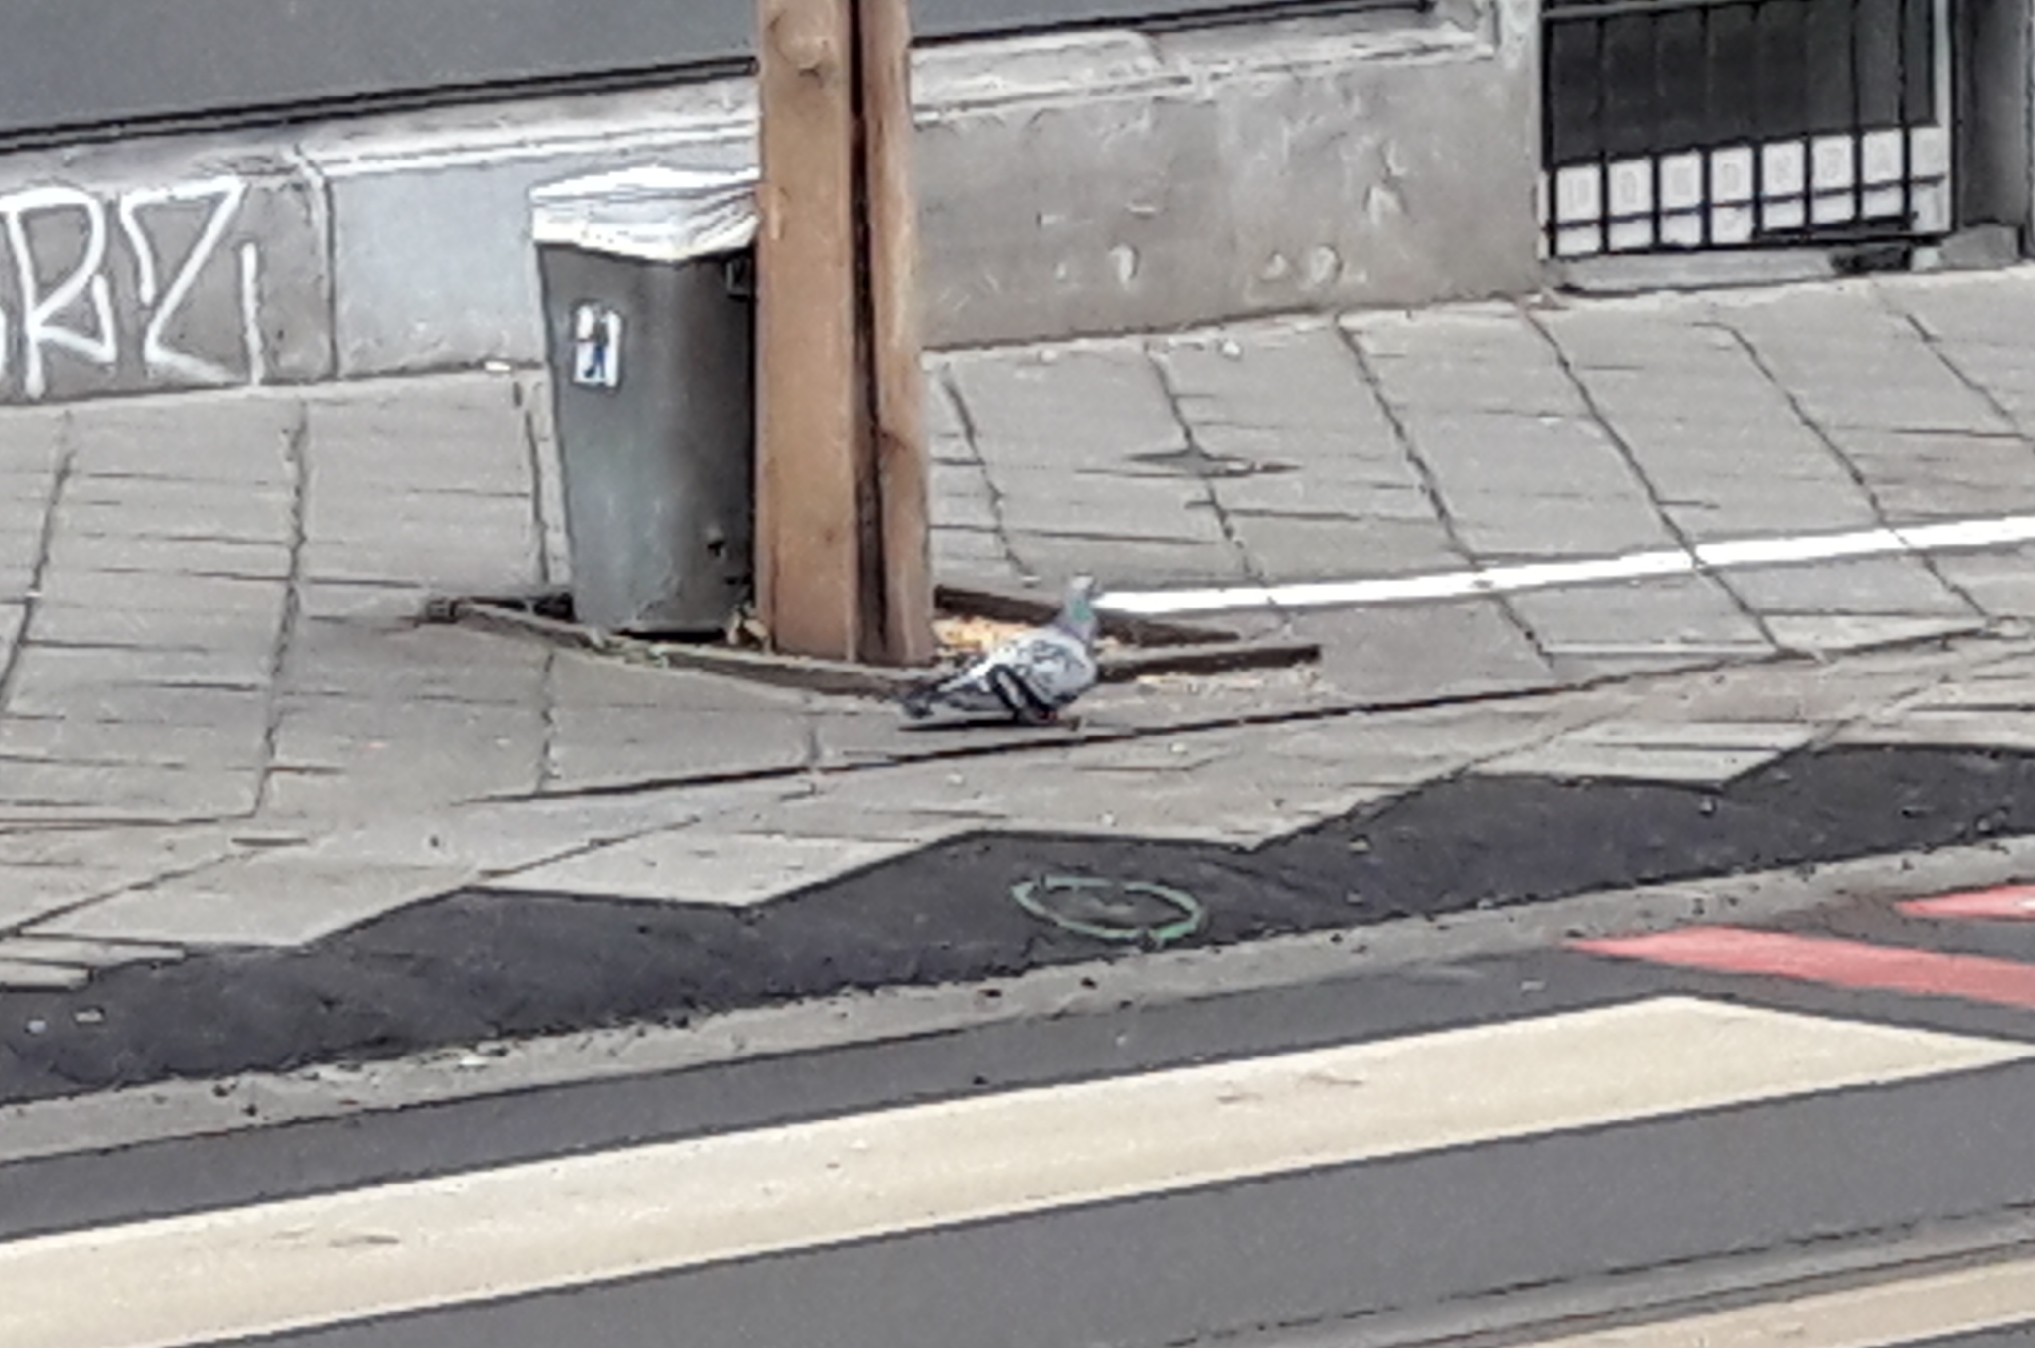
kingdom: Animalia
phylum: Chordata
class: Aves
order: Columbiformes
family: Columbidae
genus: Columba
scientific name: Columba livia
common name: Rock pigeon
